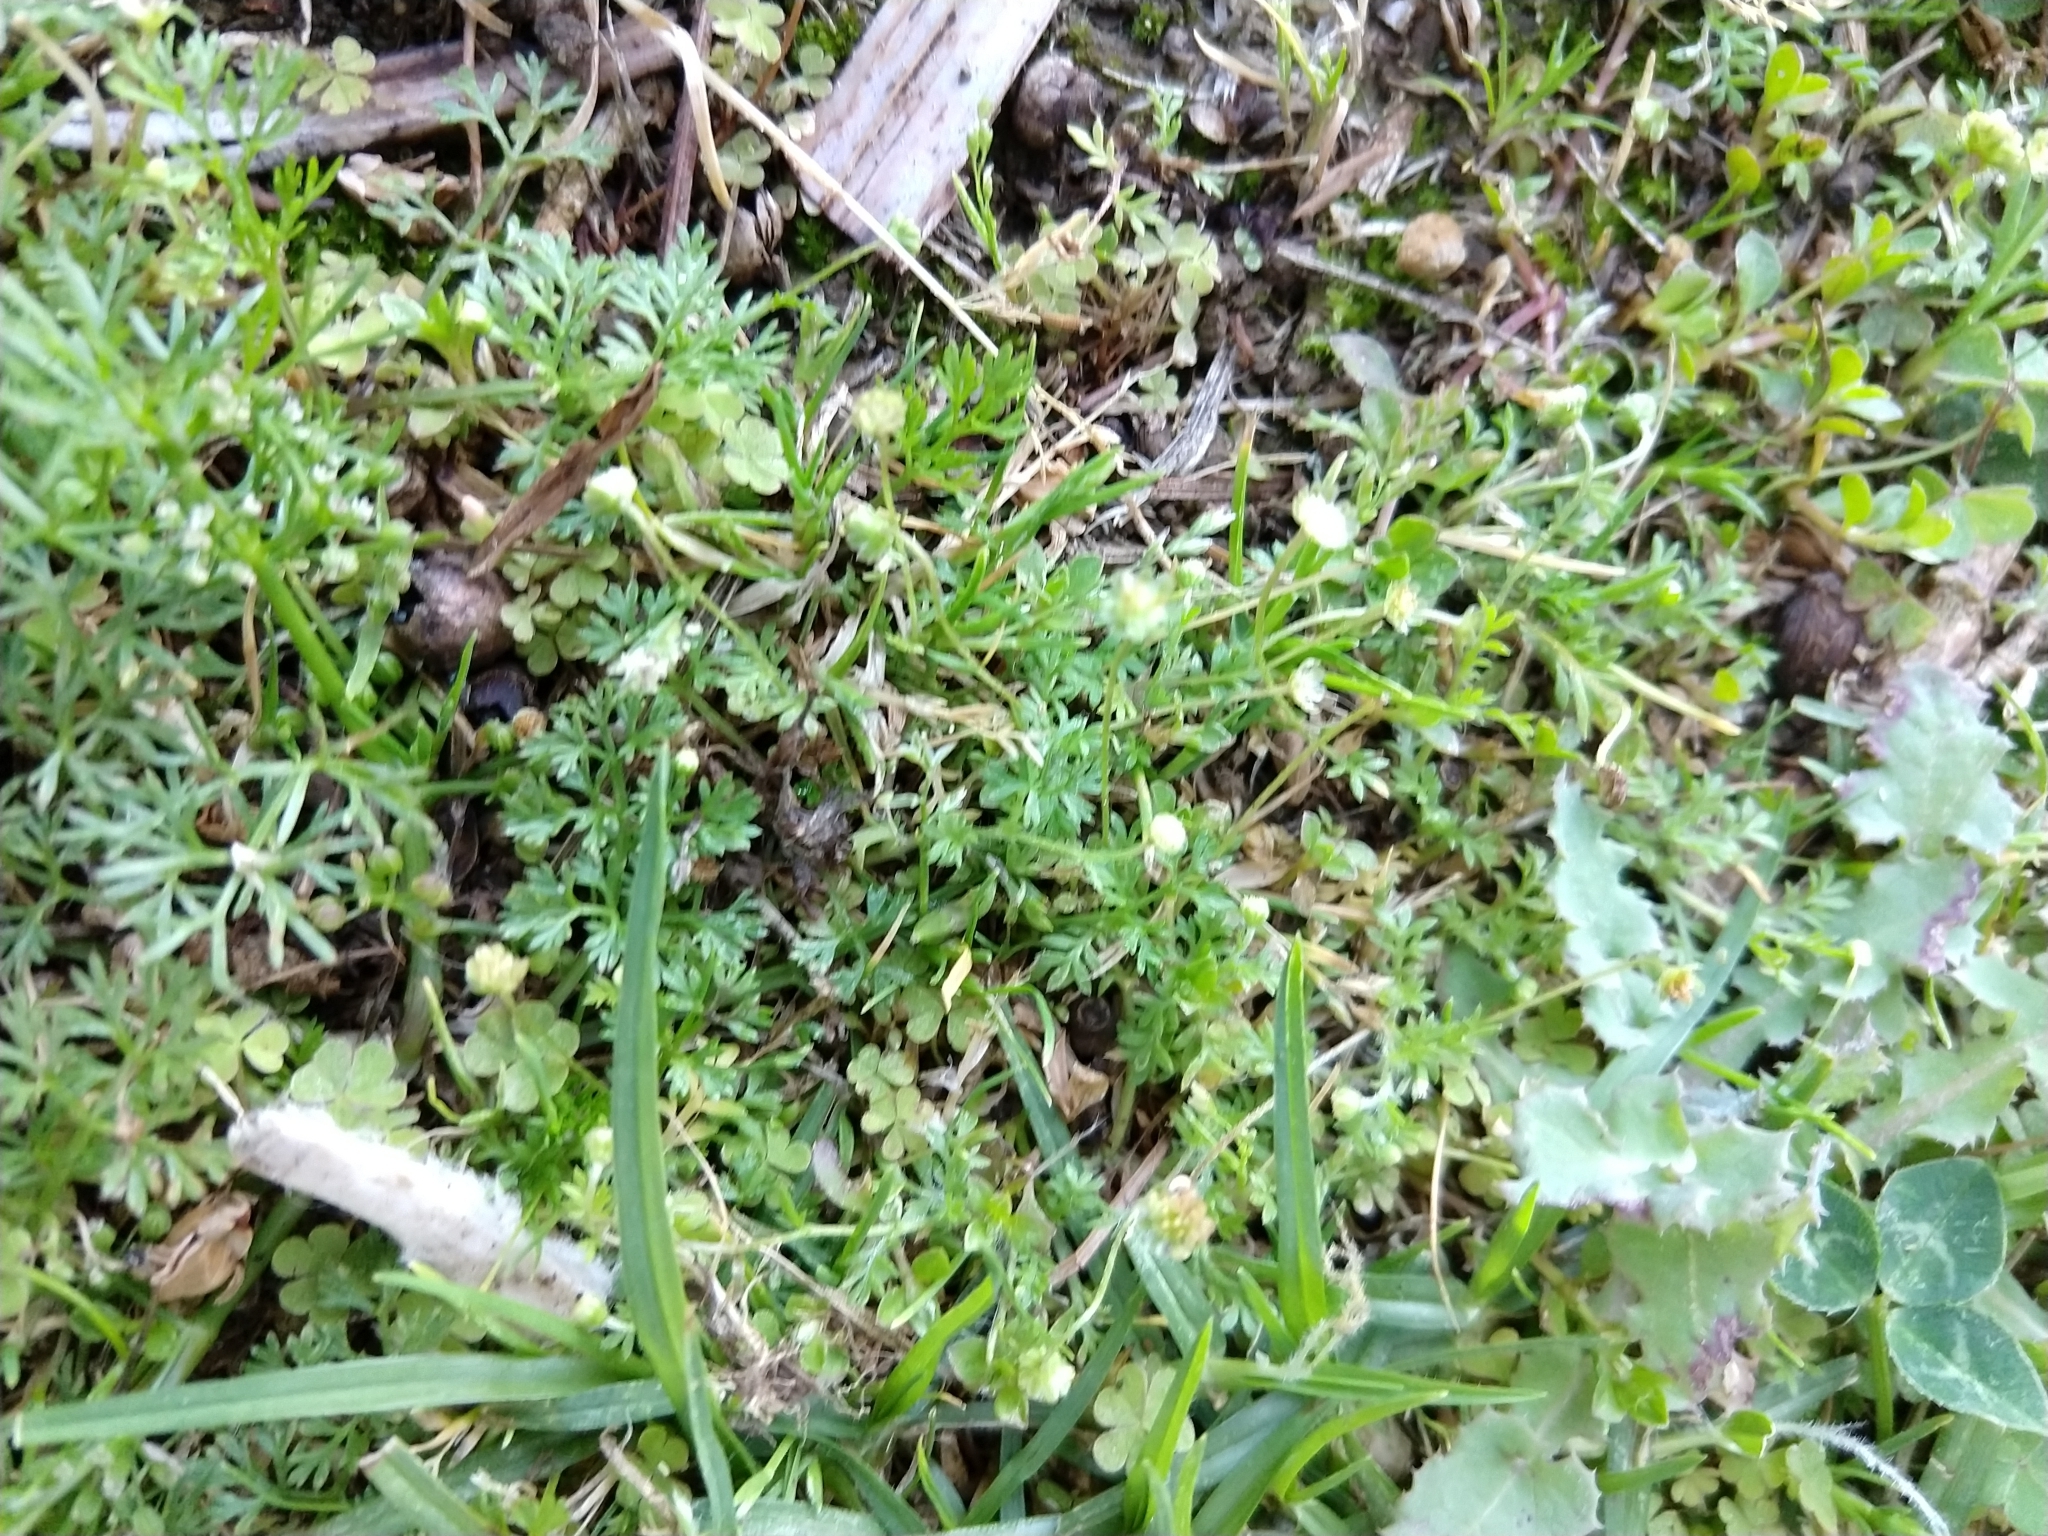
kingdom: Plantae
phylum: Tracheophyta
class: Magnoliopsida
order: Asterales
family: Asteraceae
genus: Cotula
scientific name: Cotula australis
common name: Australian waterbuttons
